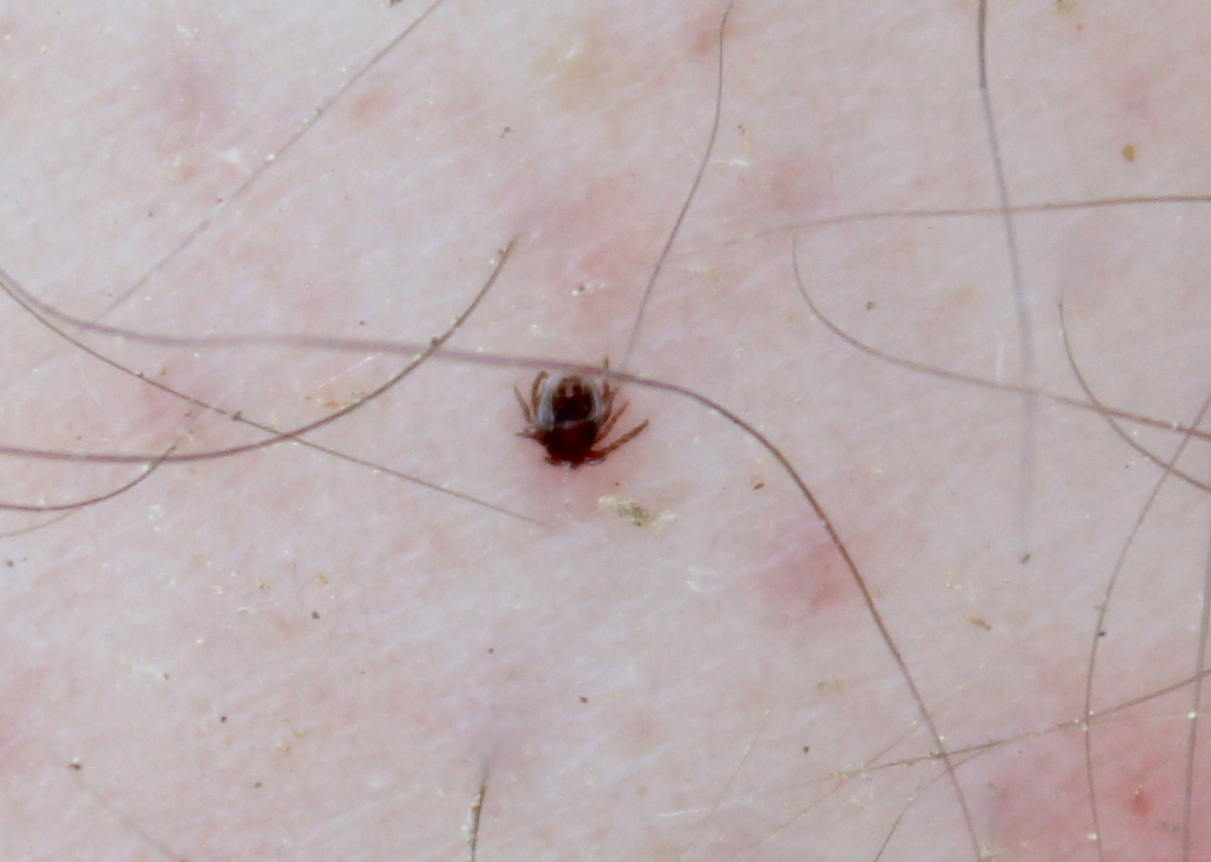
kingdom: Animalia
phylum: Arthropoda
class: Arachnida
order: Ixodida
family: Ixodidae
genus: Ixodes
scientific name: Ixodes scapularis
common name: Black legged tick
